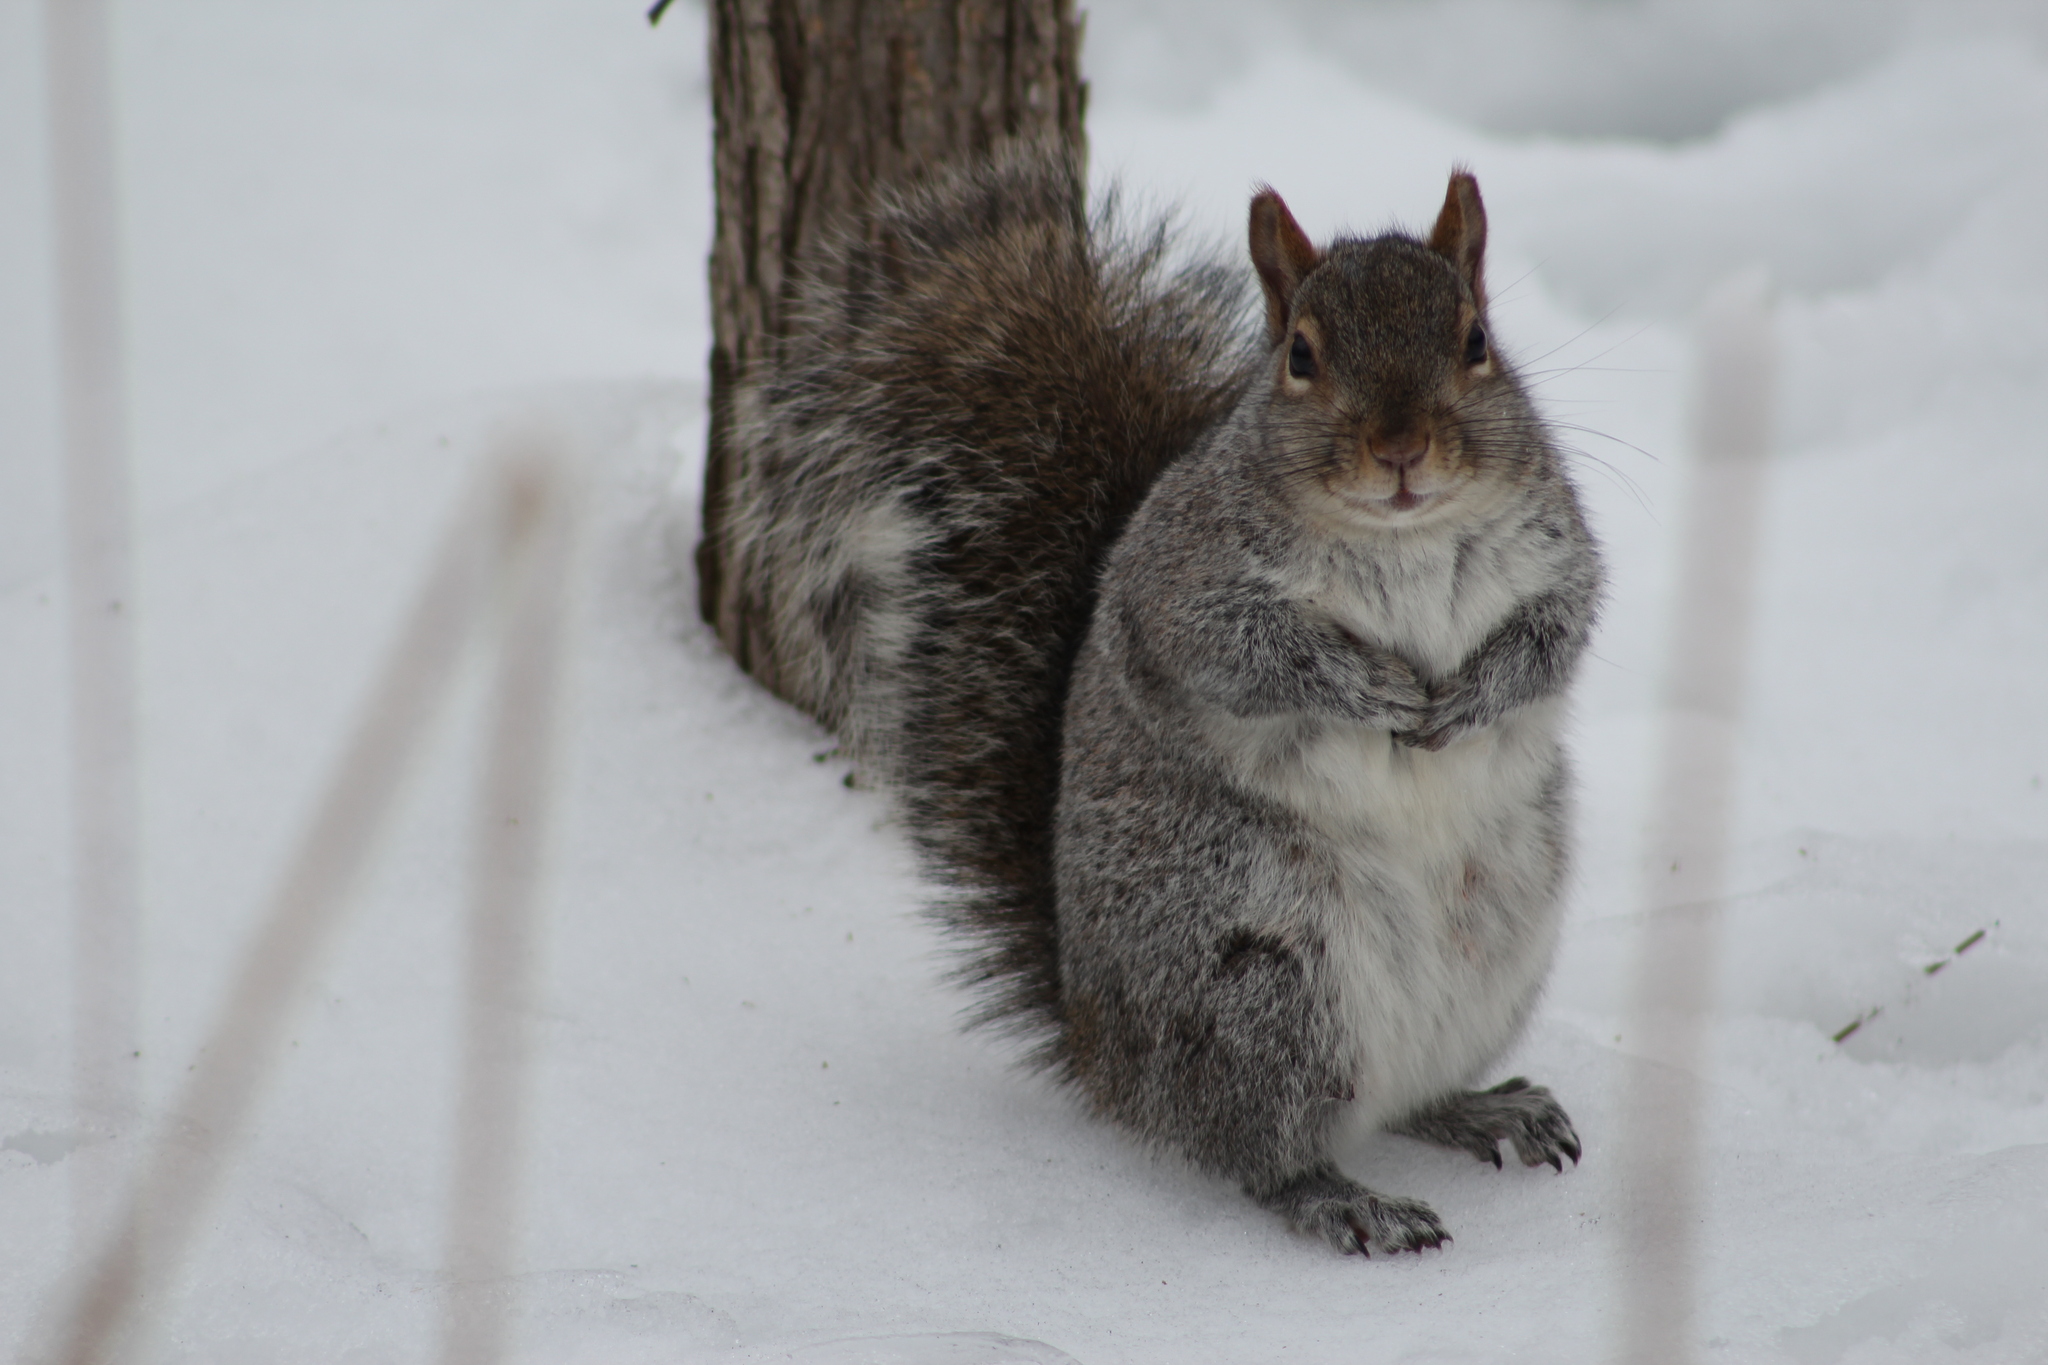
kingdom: Animalia
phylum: Chordata
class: Mammalia
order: Rodentia
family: Sciuridae
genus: Sciurus
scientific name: Sciurus carolinensis
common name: Eastern gray squirrel
